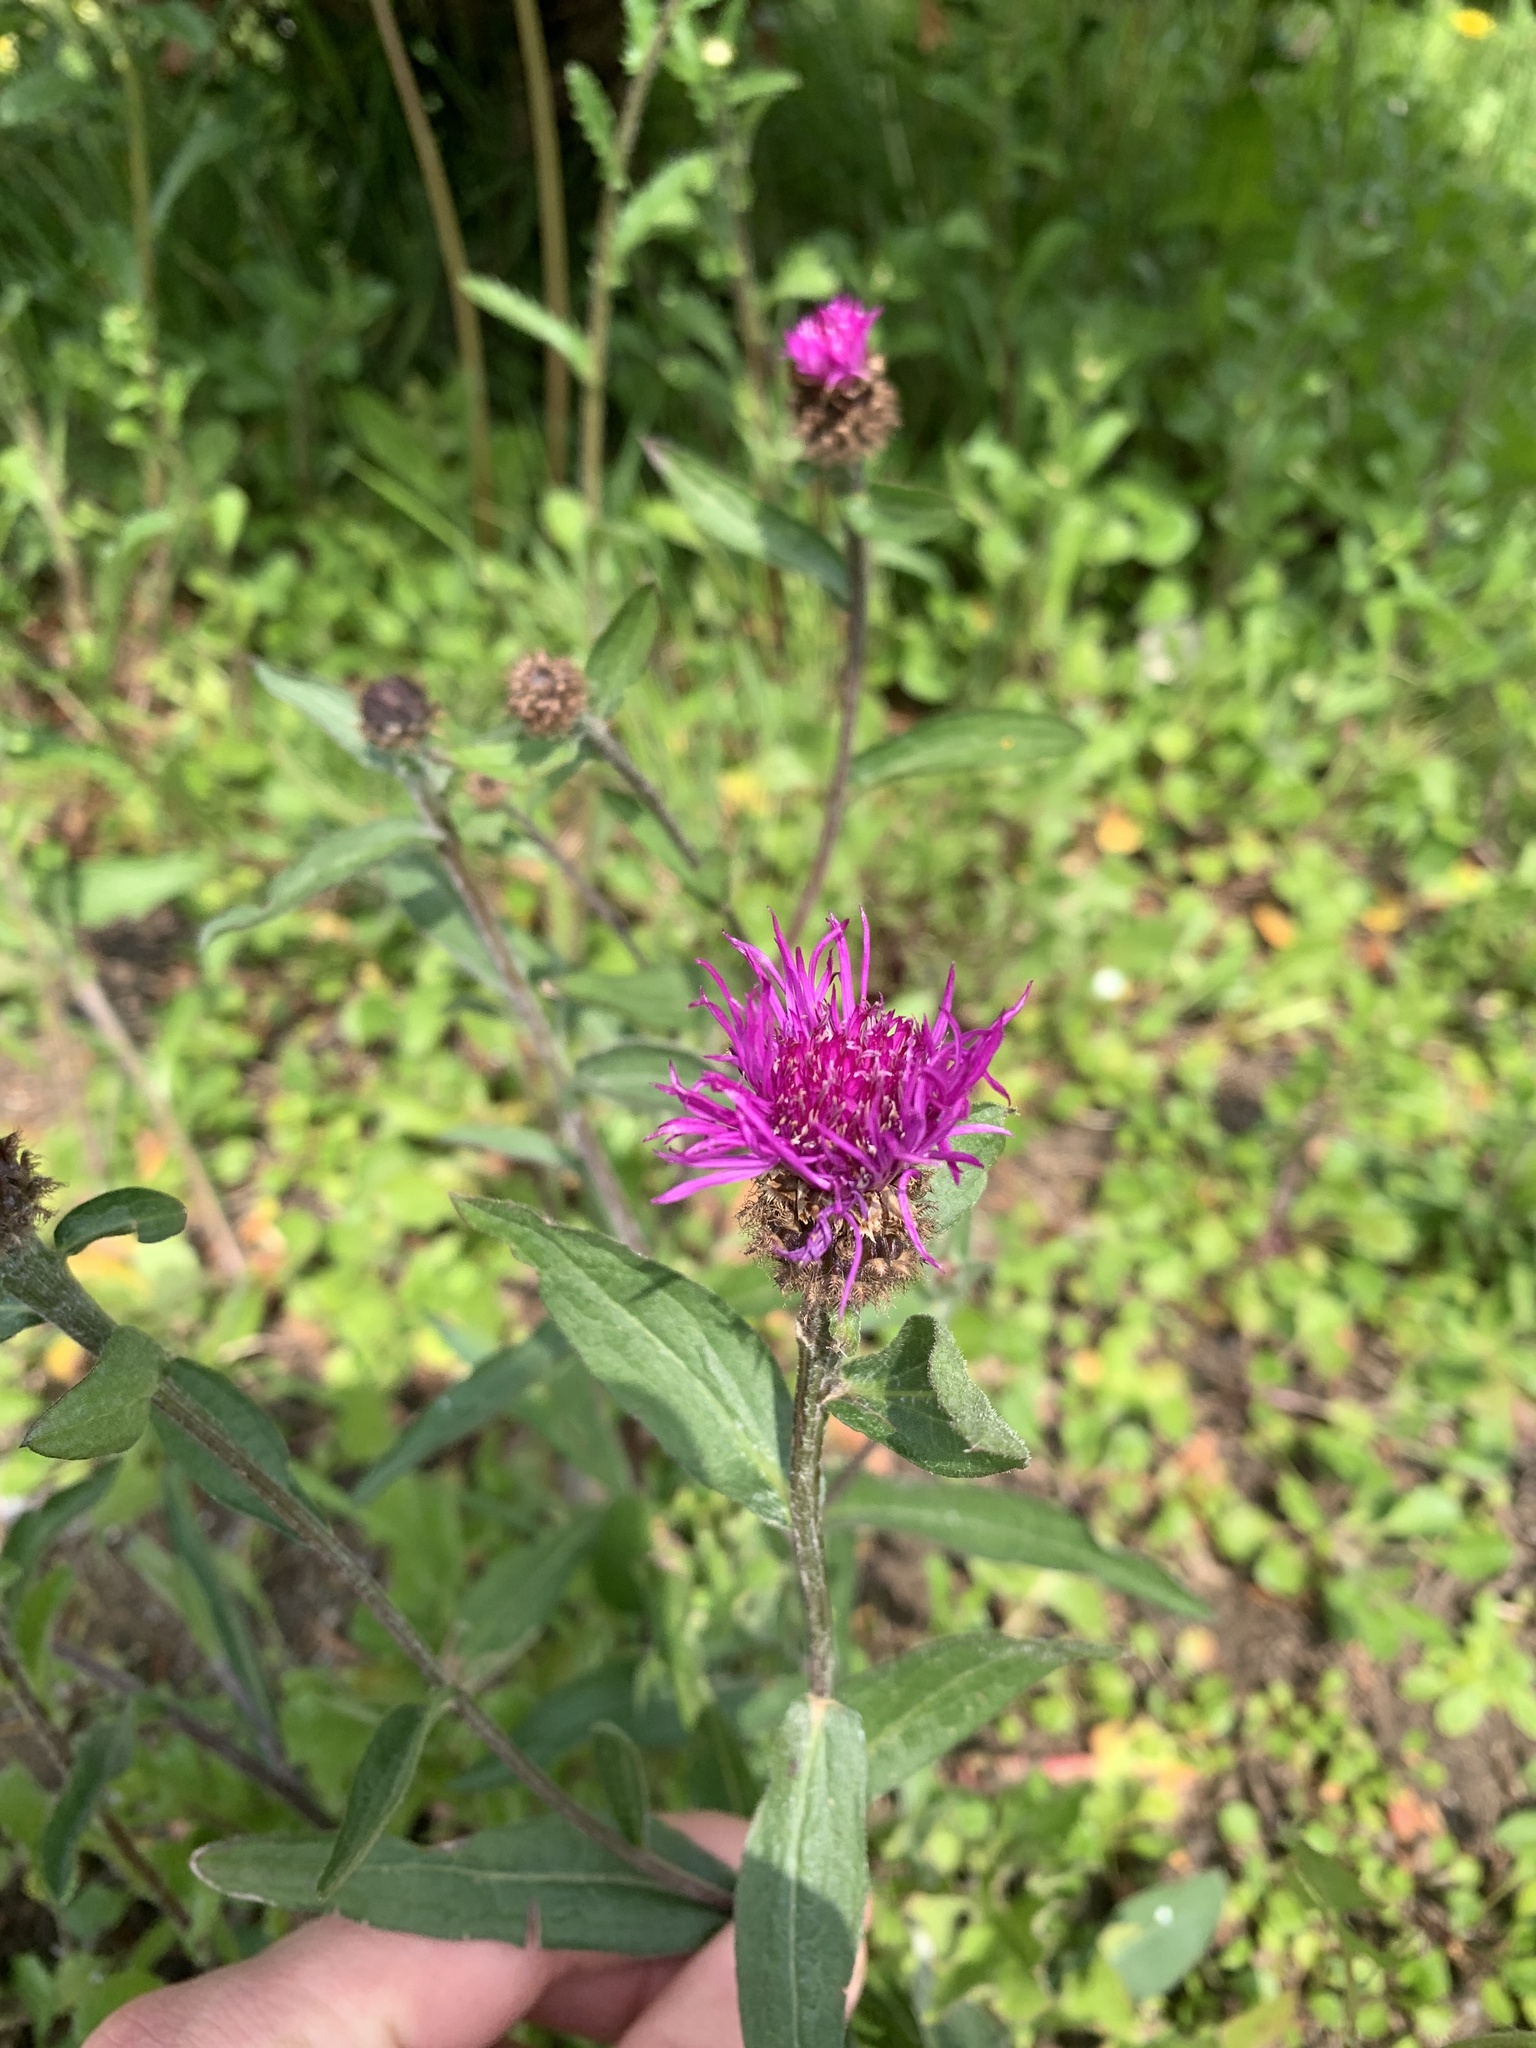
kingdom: Plantae
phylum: Tracheophyta
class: Magnoliopsida
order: Asterales
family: Asteraceae
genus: Centaurea
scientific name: Centaurea nigra
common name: Lesser knapweed
